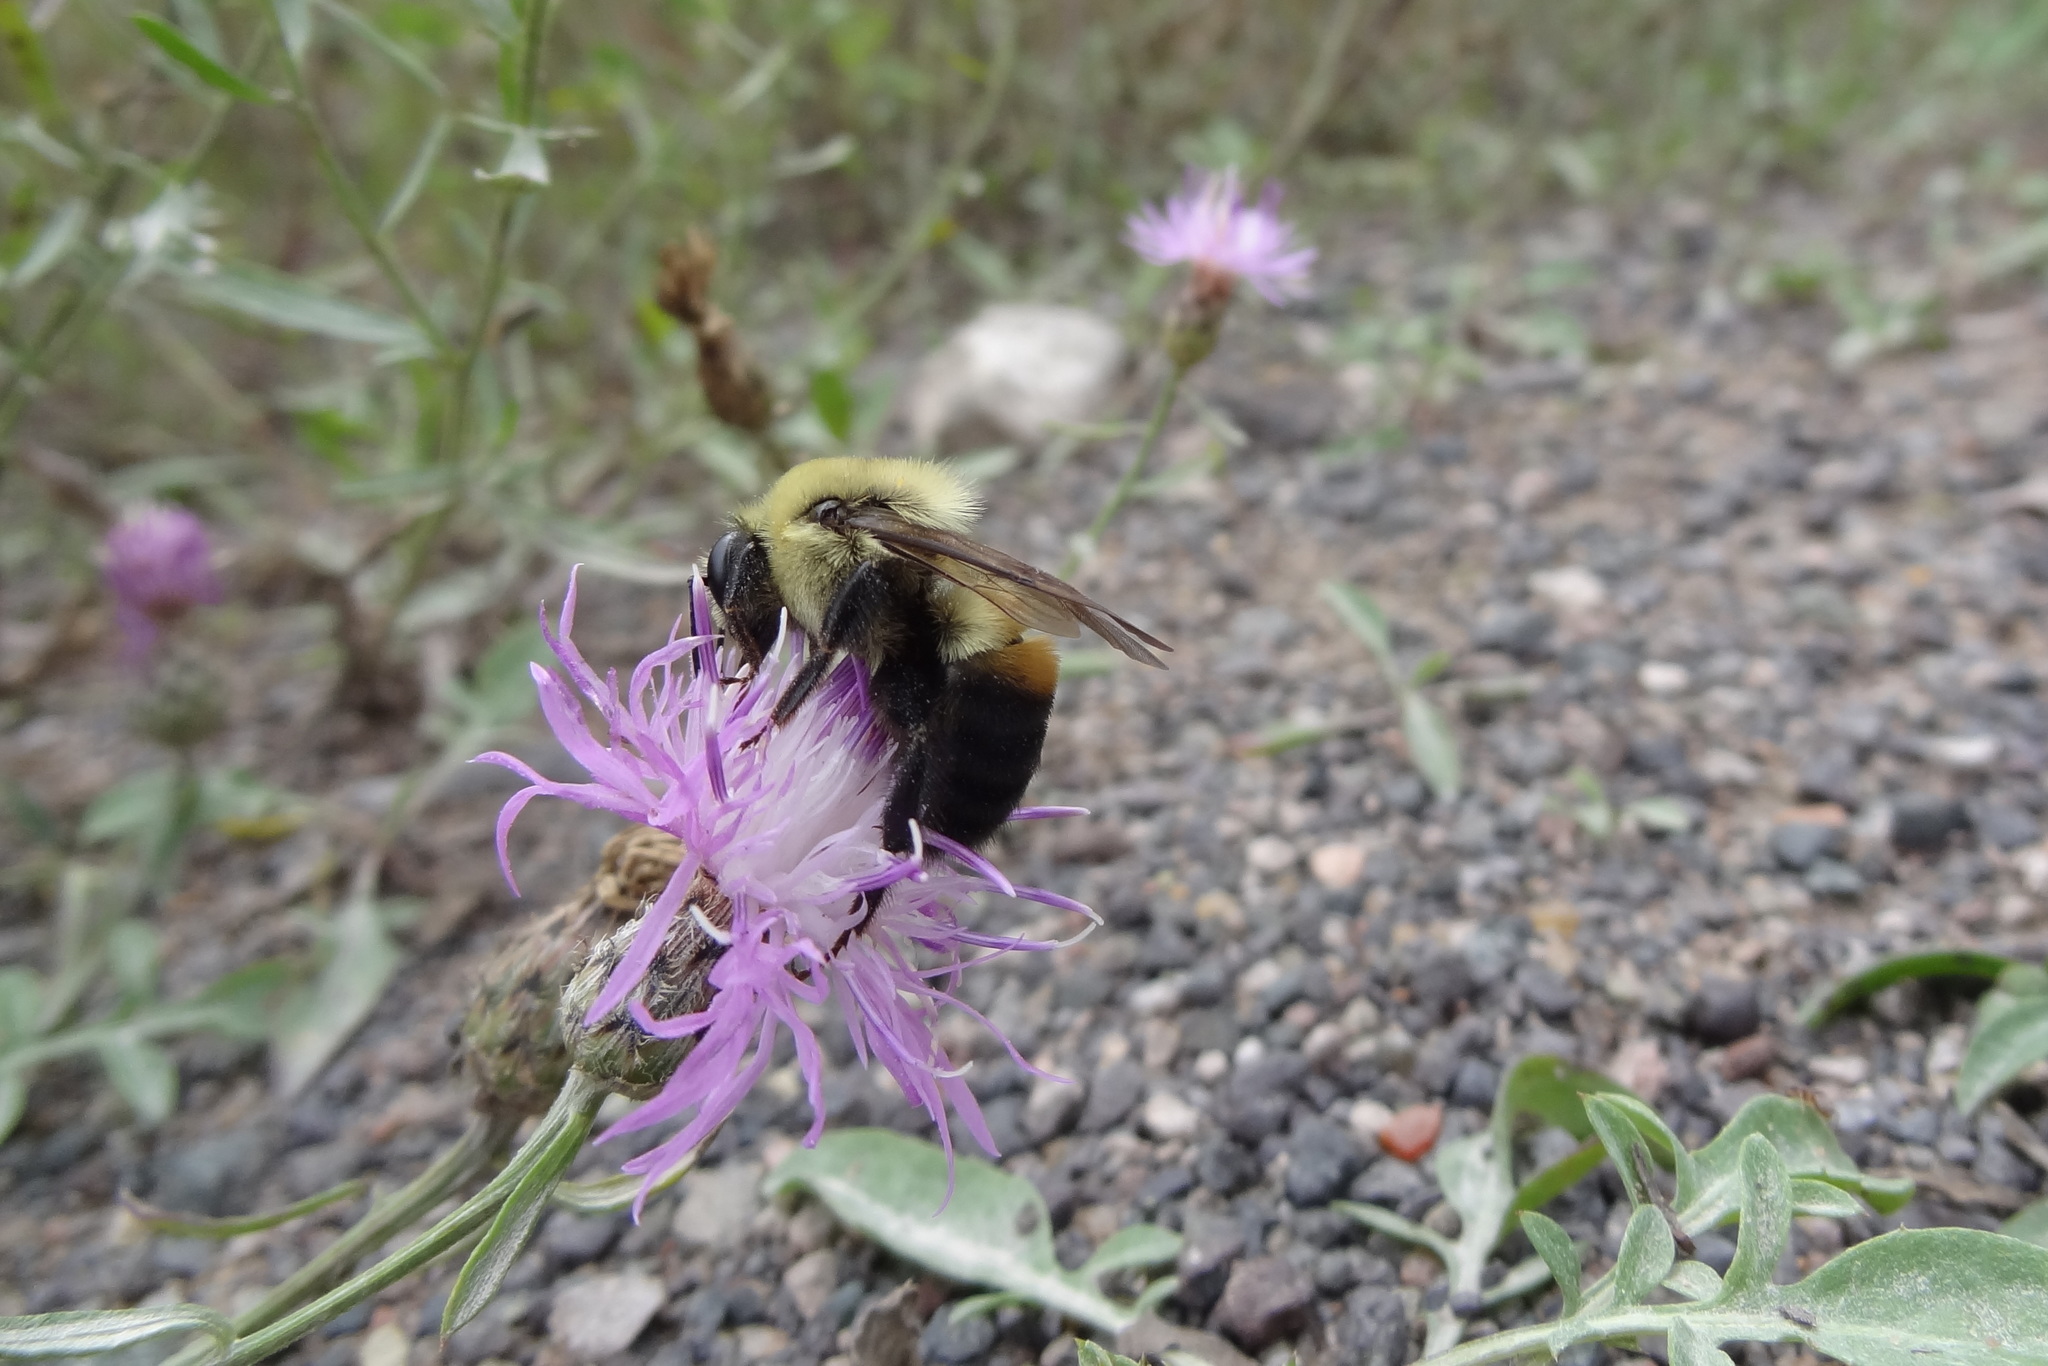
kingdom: Animalia
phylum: Arthropoda
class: Insecta
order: Hymenoptera
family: Apidae
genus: Bombus
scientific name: Bombus griseocollis
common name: Brown-belted bumble bee
